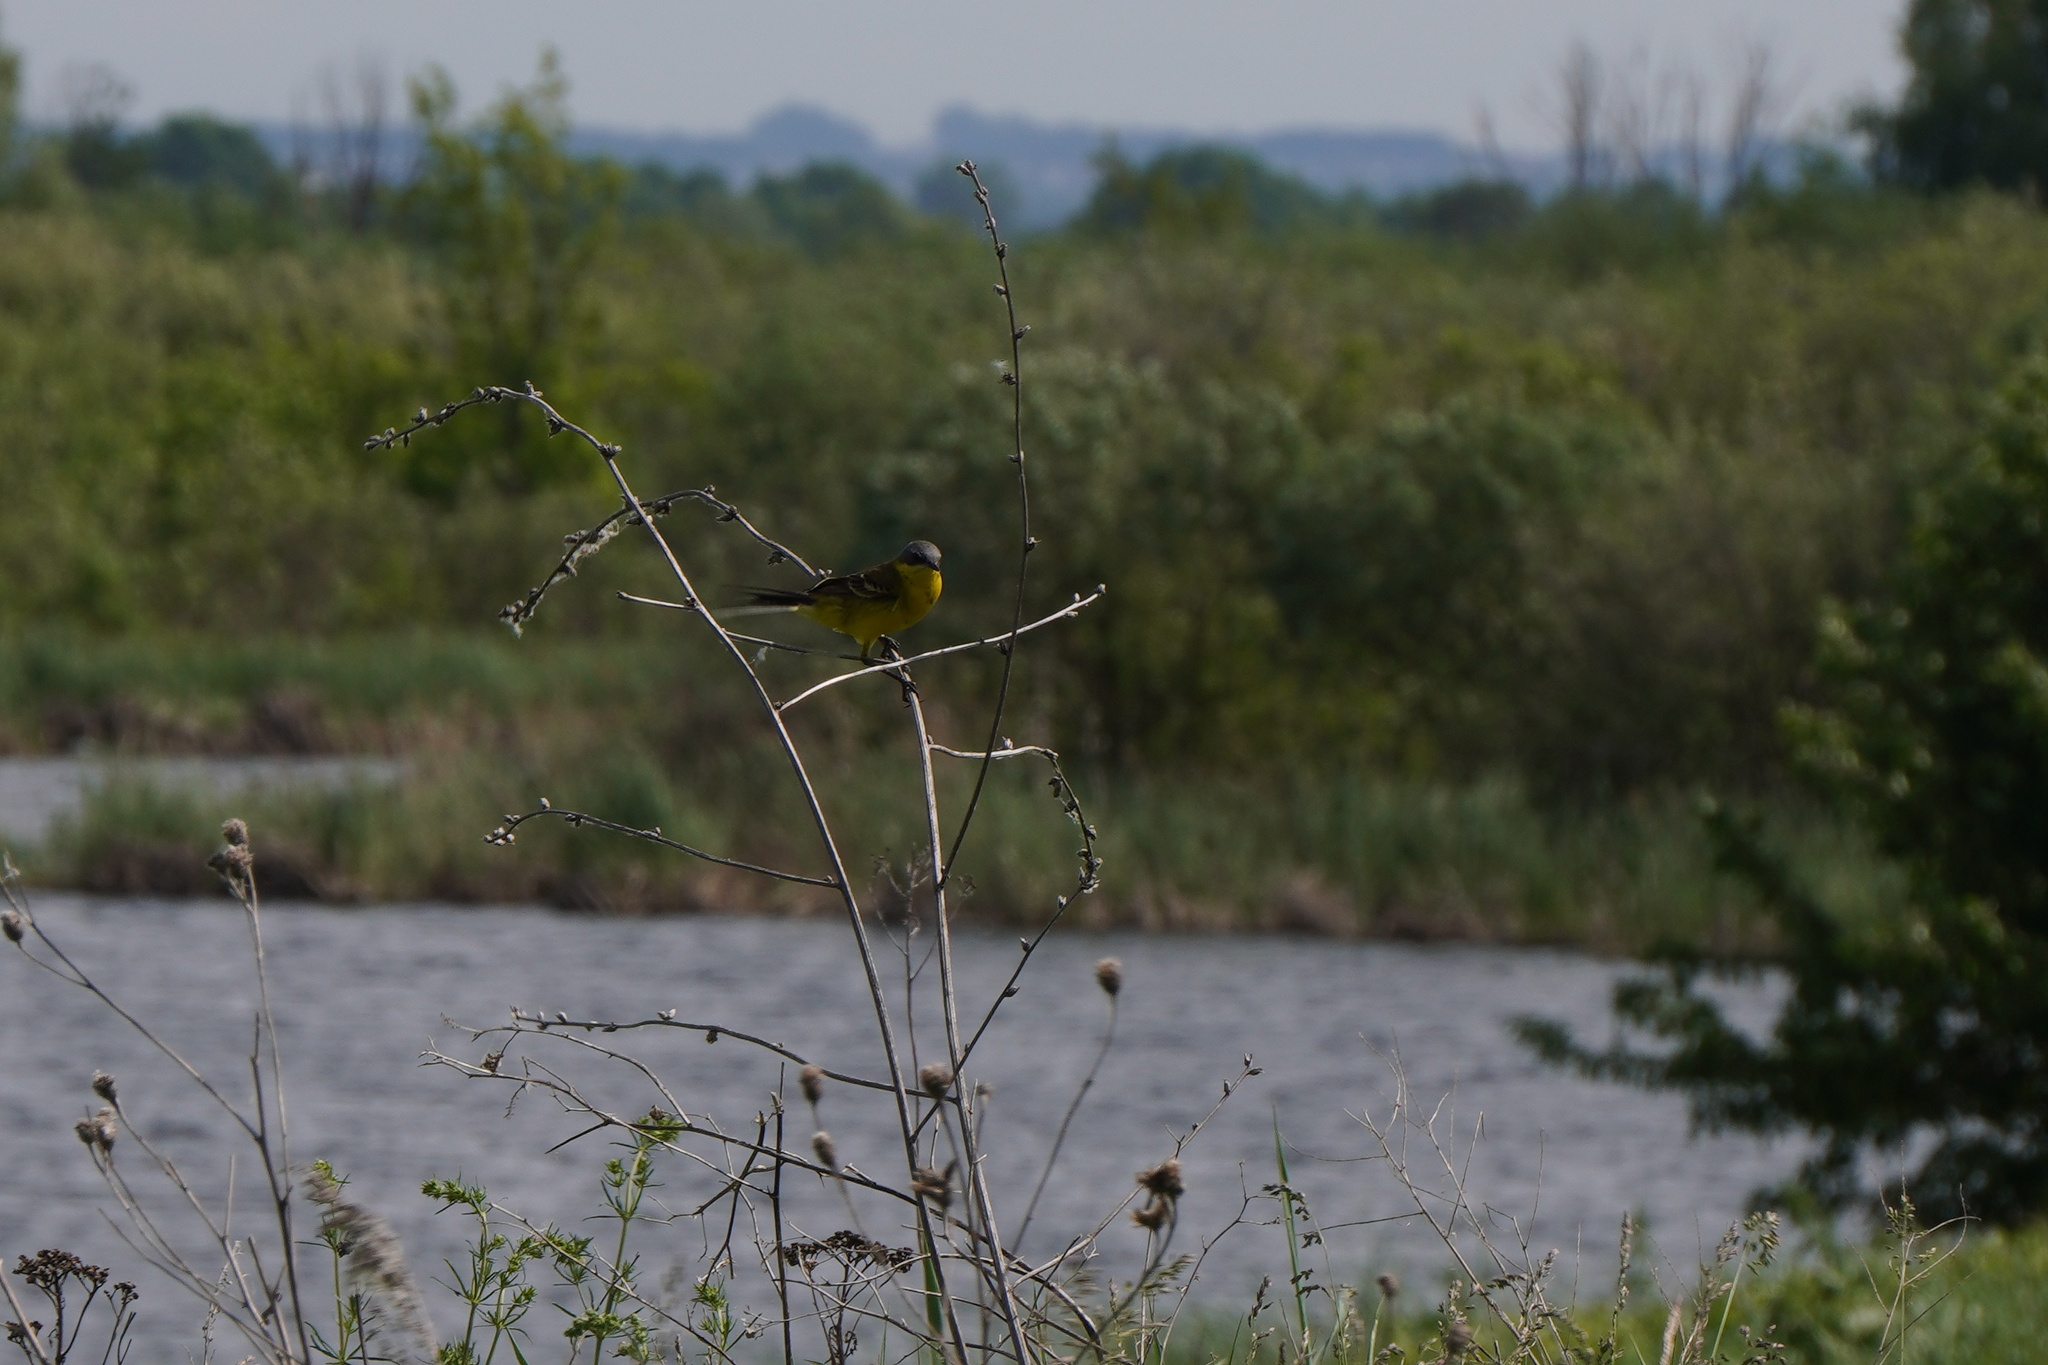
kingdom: Animalia
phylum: Chordata
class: Aves
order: Passeriformes
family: Motacillidae
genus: Motacilla
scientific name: Motacilla flava
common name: Western yellow wagtail
